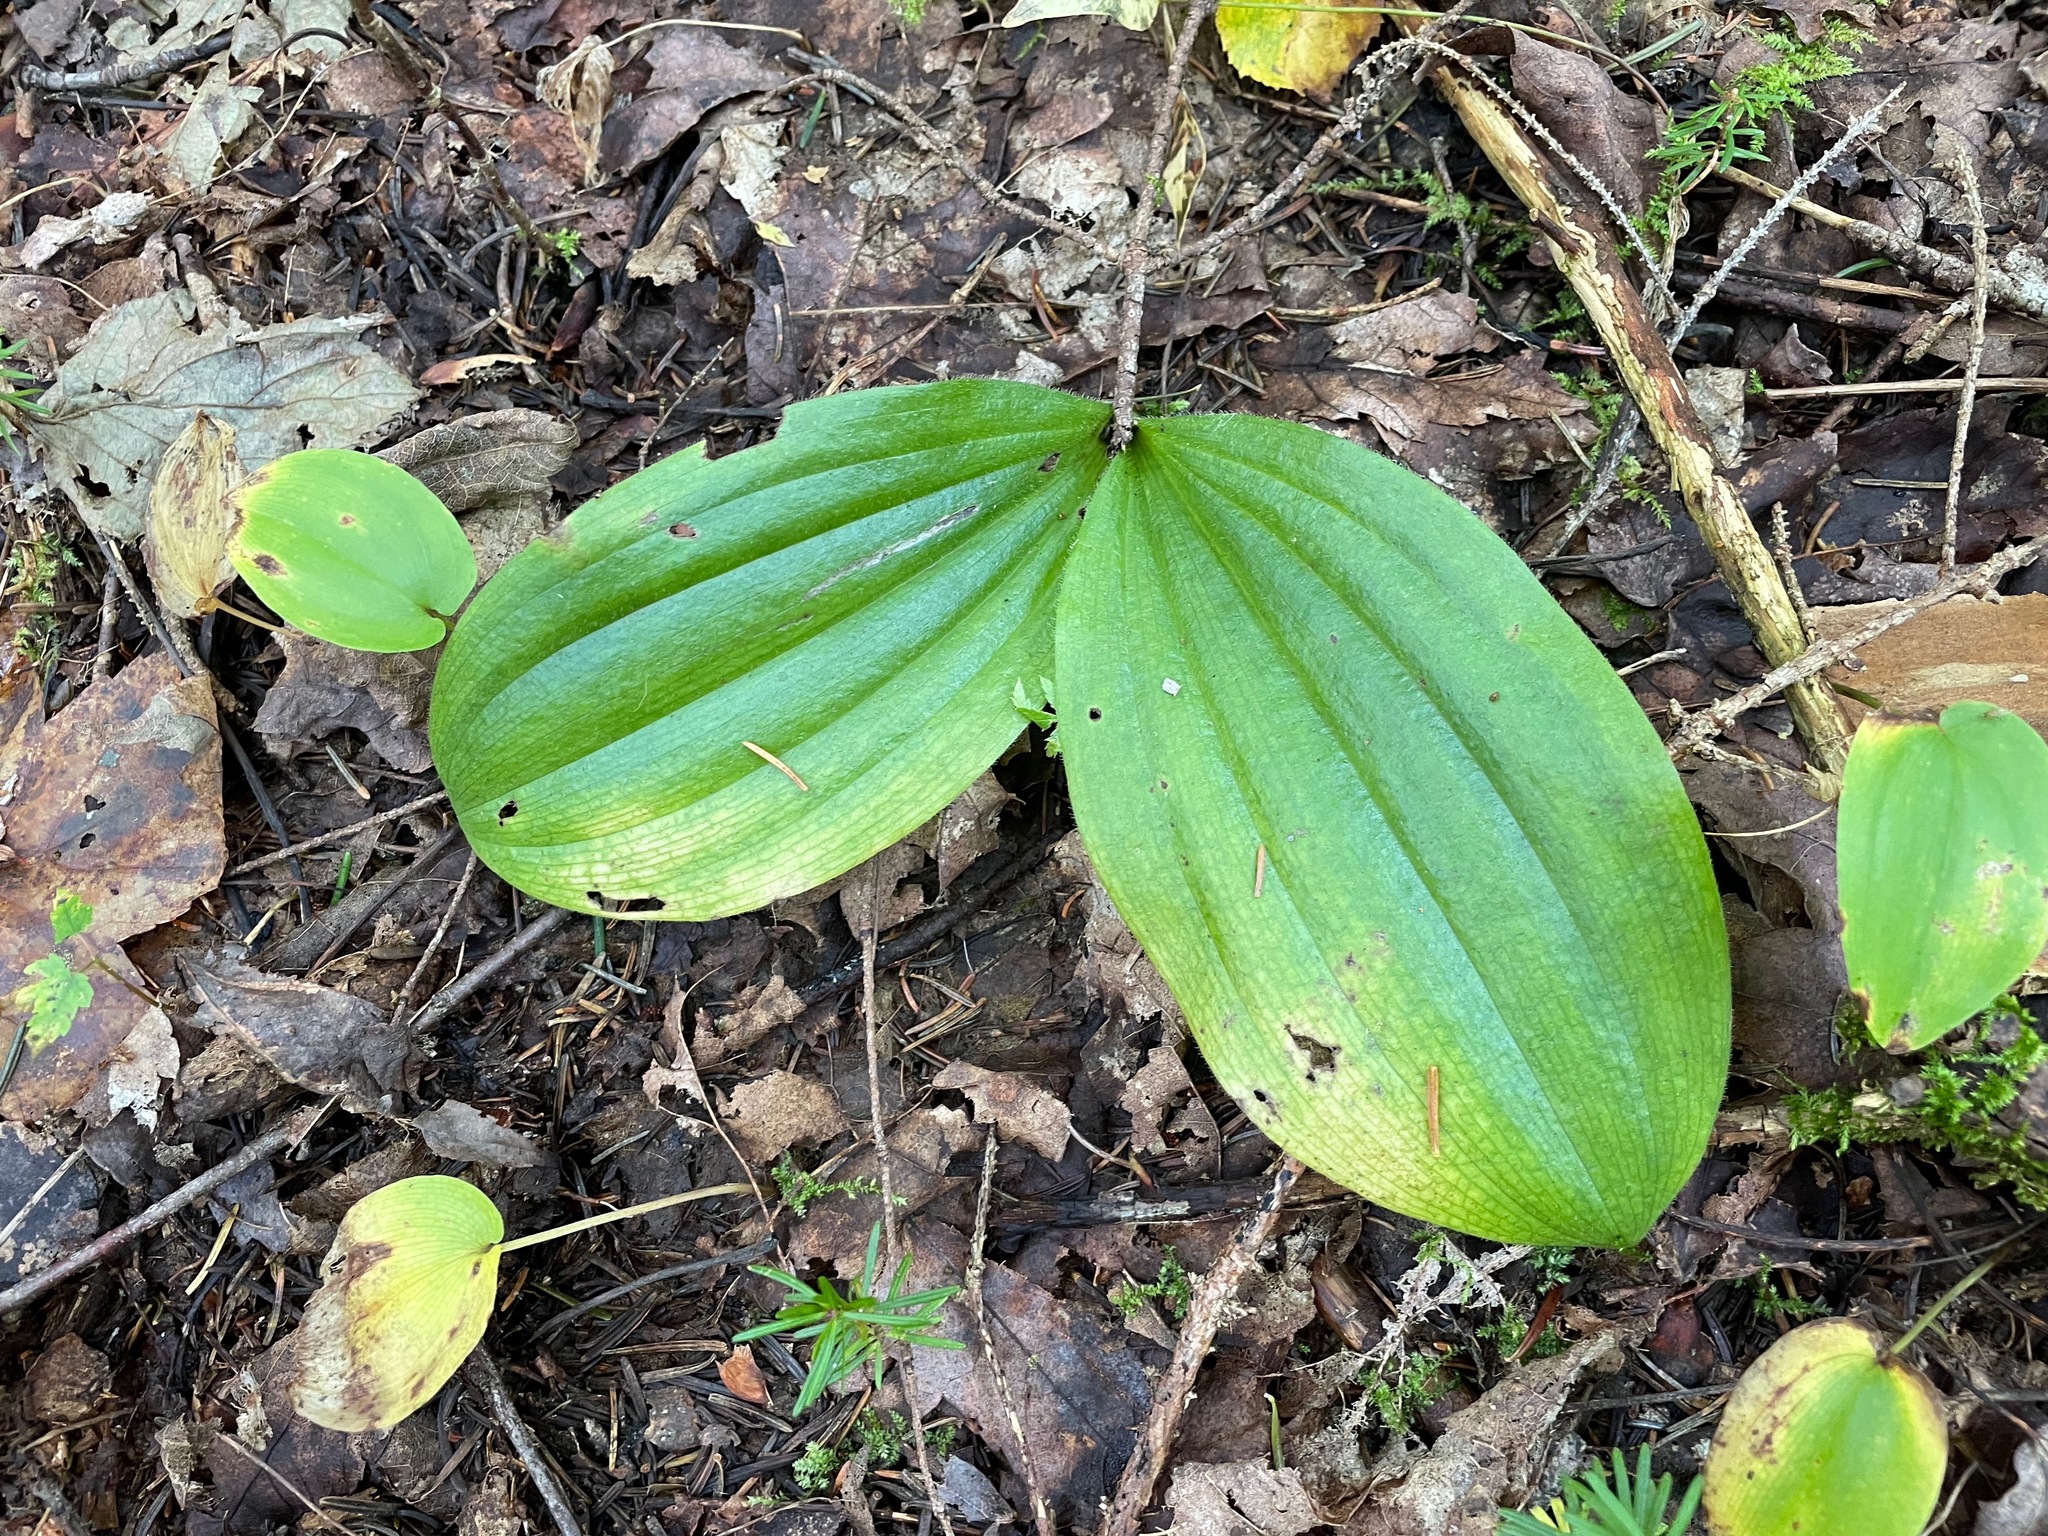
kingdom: Plantae
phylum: Tracheophyta
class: Liliopsida
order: Asparagales
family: Orchidaceae
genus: Cypripedium
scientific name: Cypripedium acaule
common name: Pink lady's-slipper
